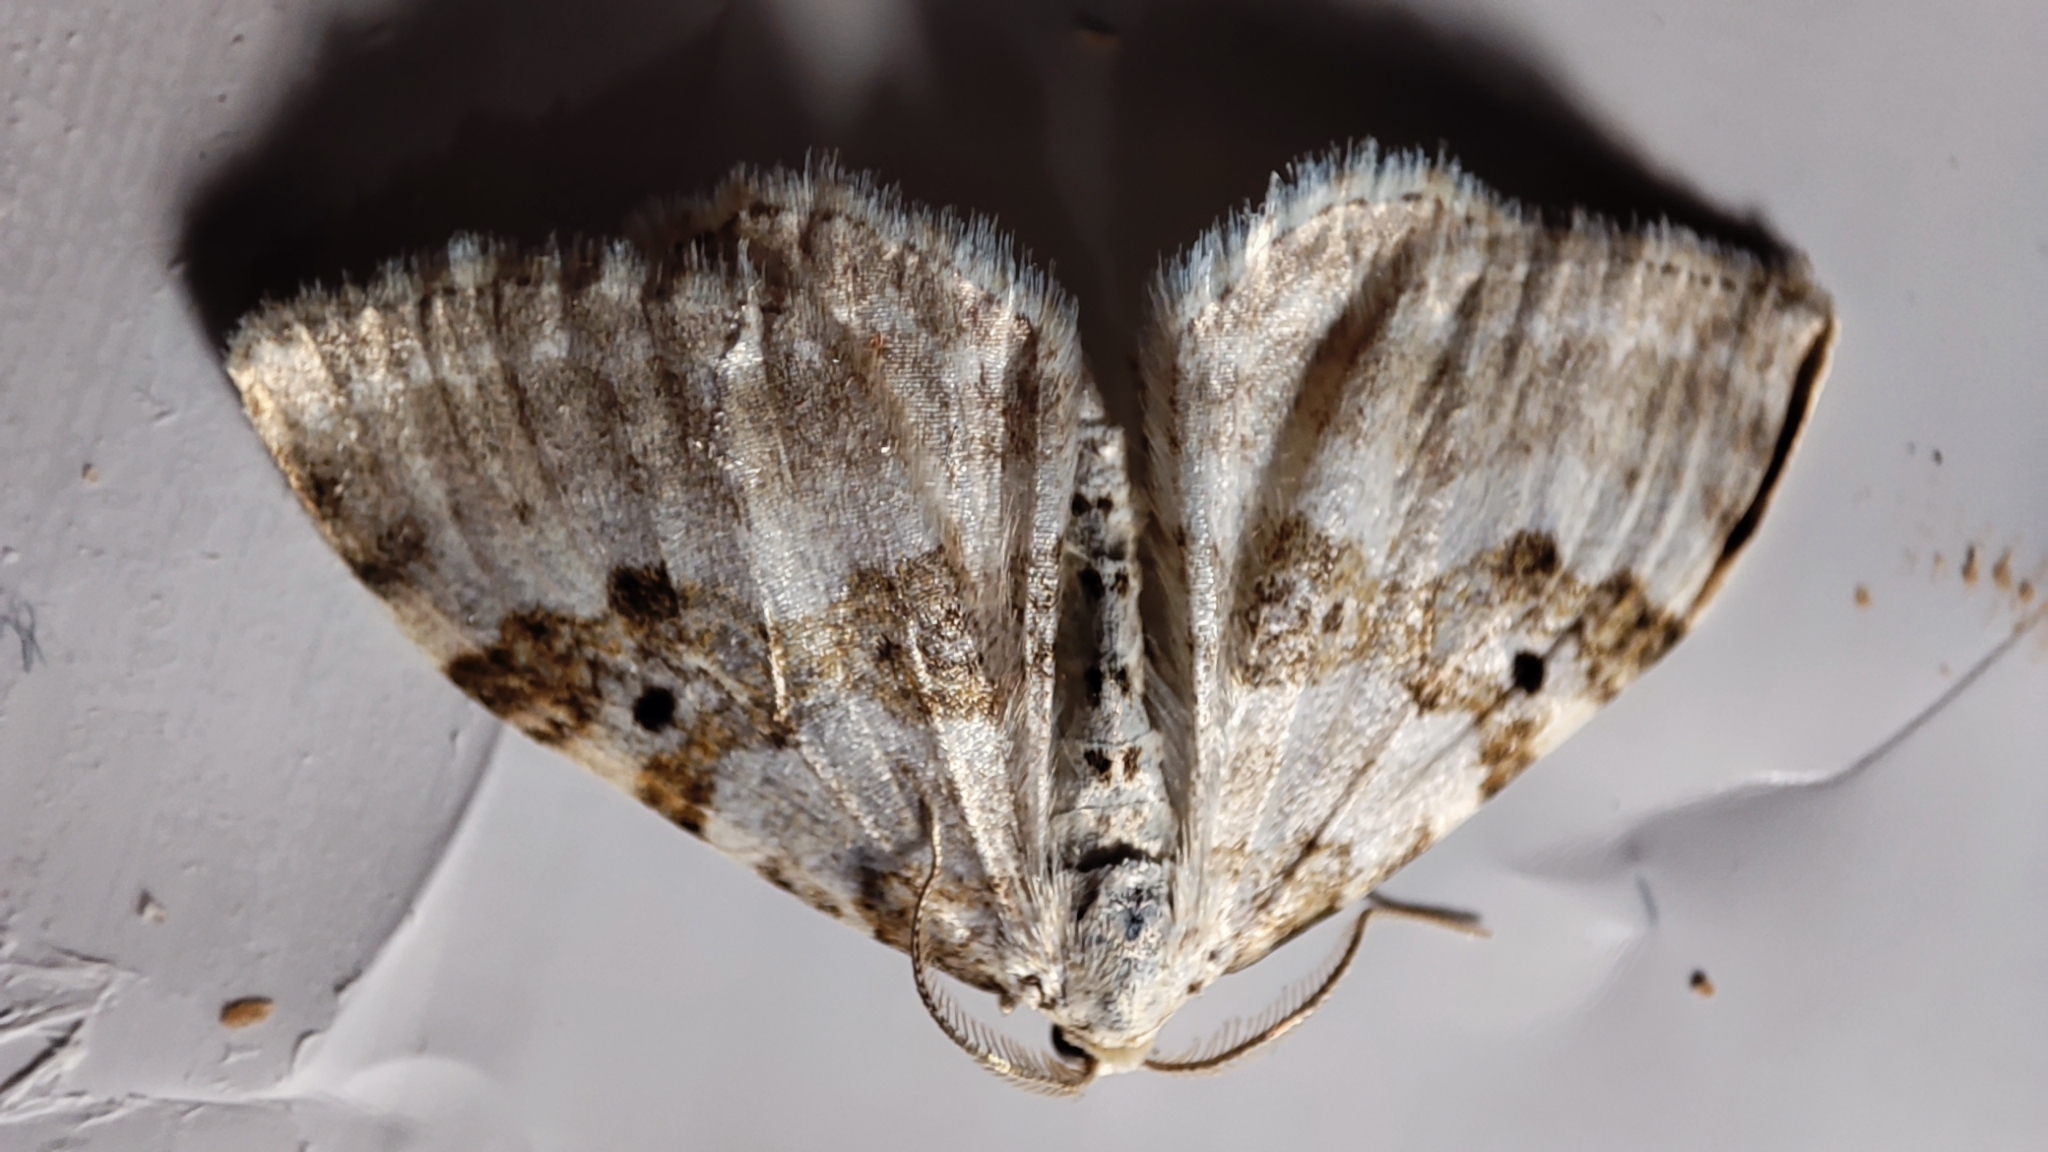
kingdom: Animalia
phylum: Arthropoda
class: Insecta
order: Lepidoptera
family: Geometridae
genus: Xanthorhoe
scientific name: Xanthorhoe montanata
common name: Silver-ground carpet
